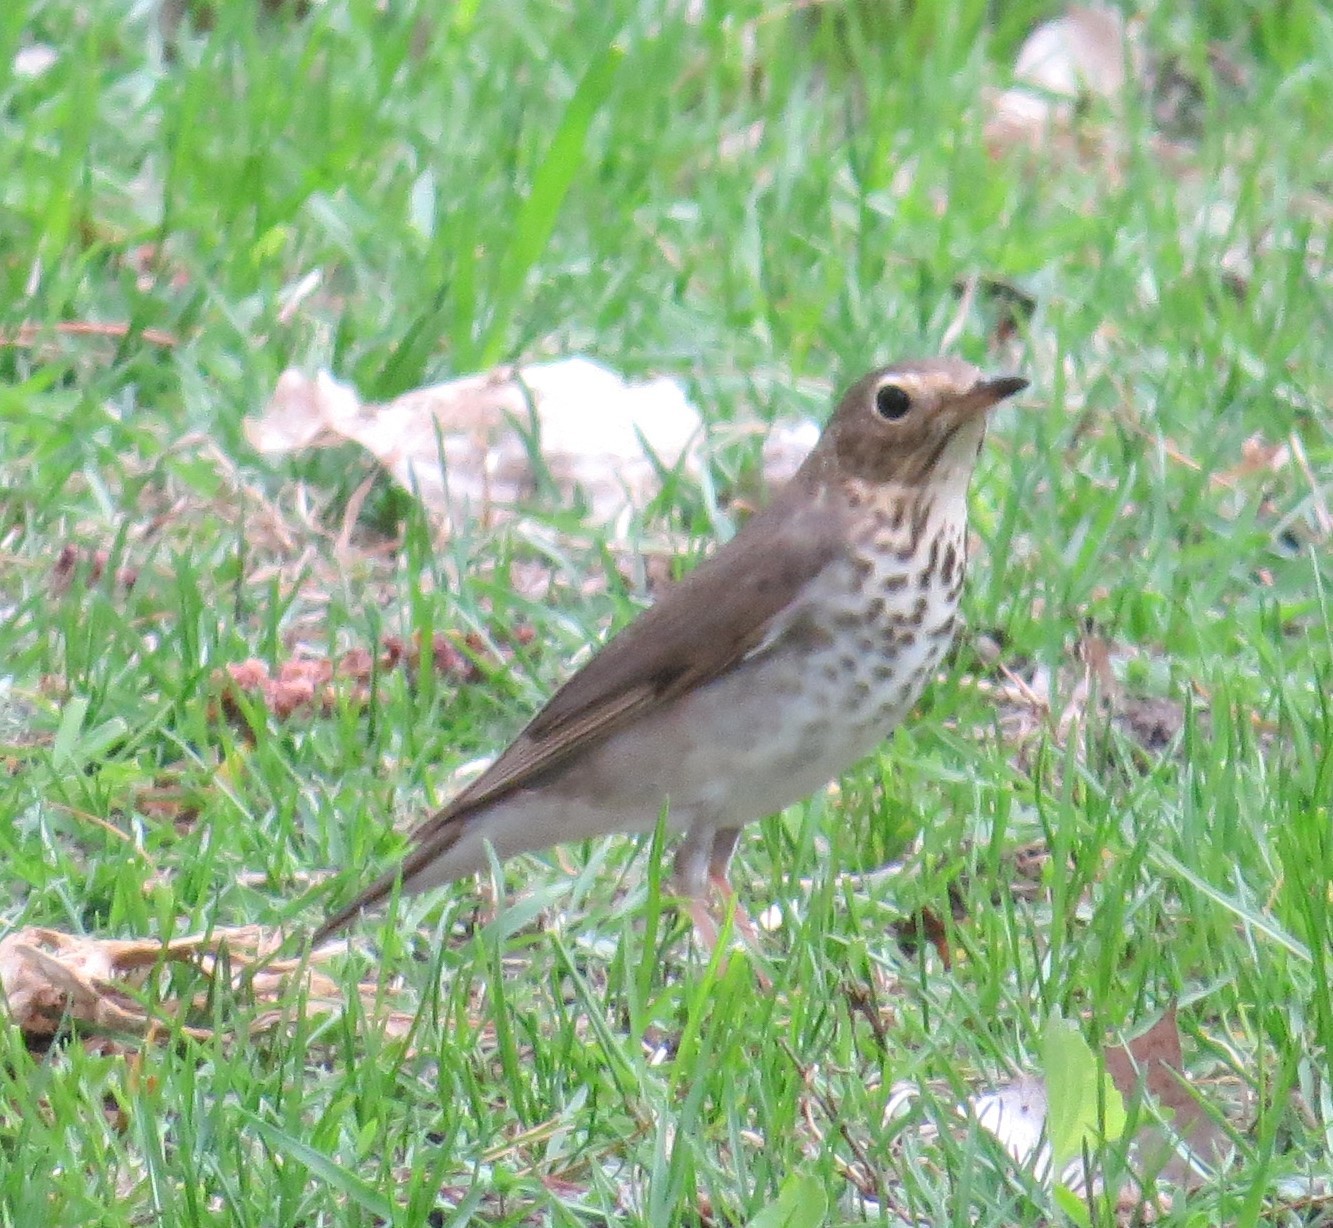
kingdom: Animalia
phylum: Chordata
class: Aves
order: Passeriformes
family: Turdidae
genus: Catharus
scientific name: Catharus ustulatus
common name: Swainson's thrush
